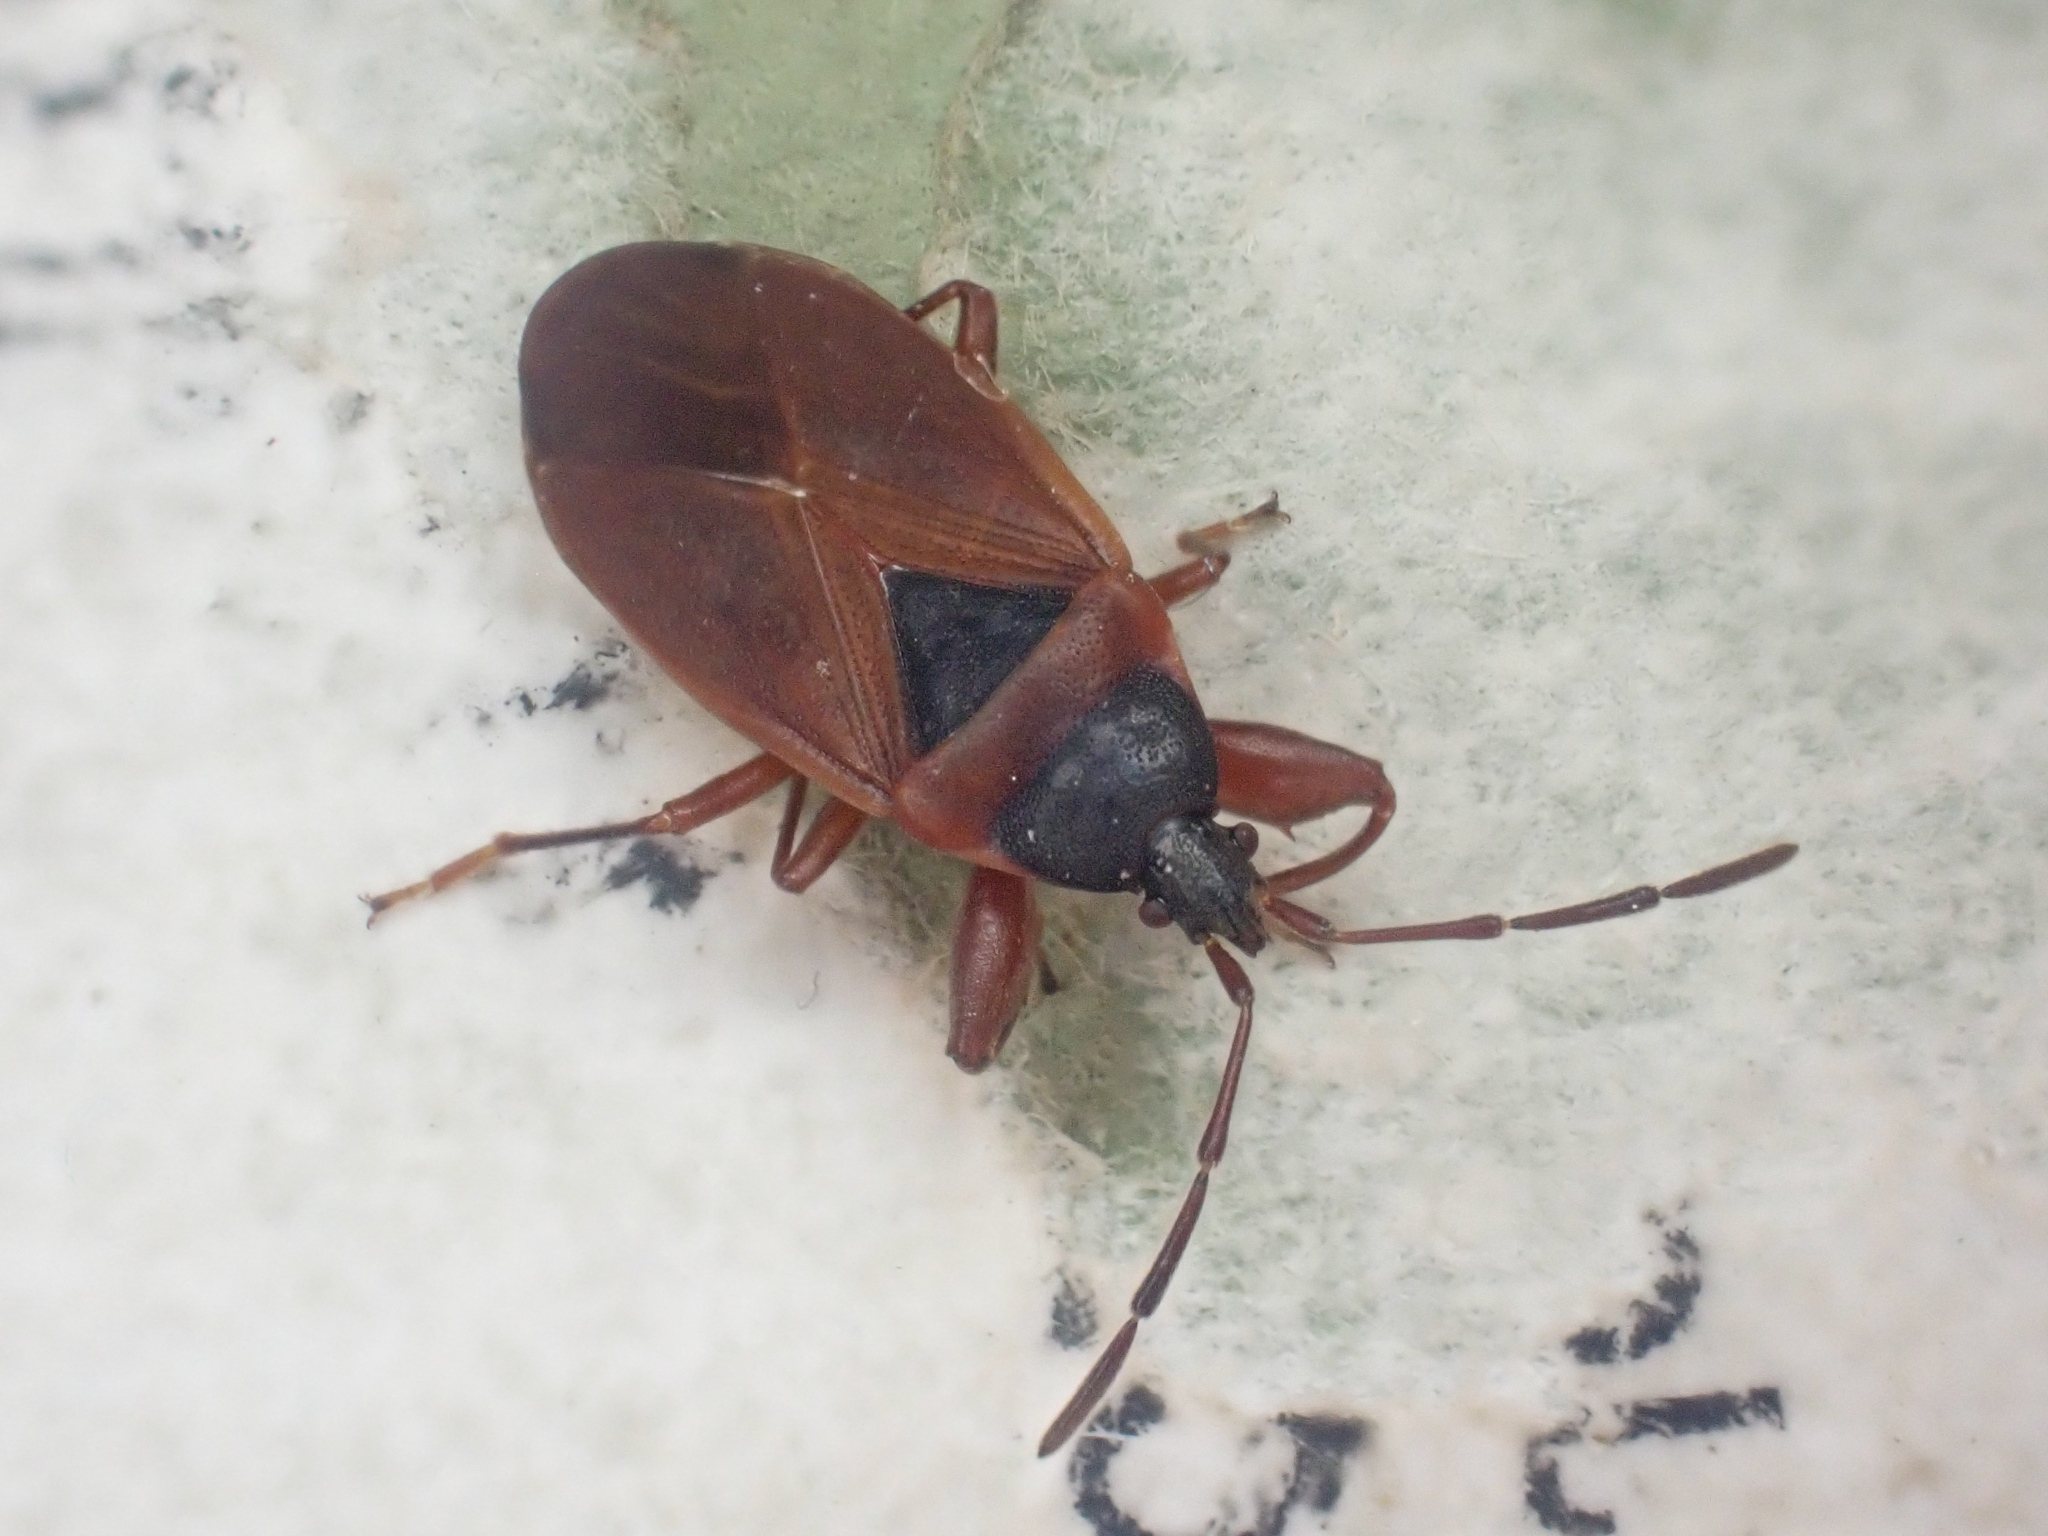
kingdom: Animalia
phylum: Arthropoda
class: Insecta
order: Hemiptera
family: Rhyparochromidae
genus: Gastrodes
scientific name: Gastrodes pacificus
